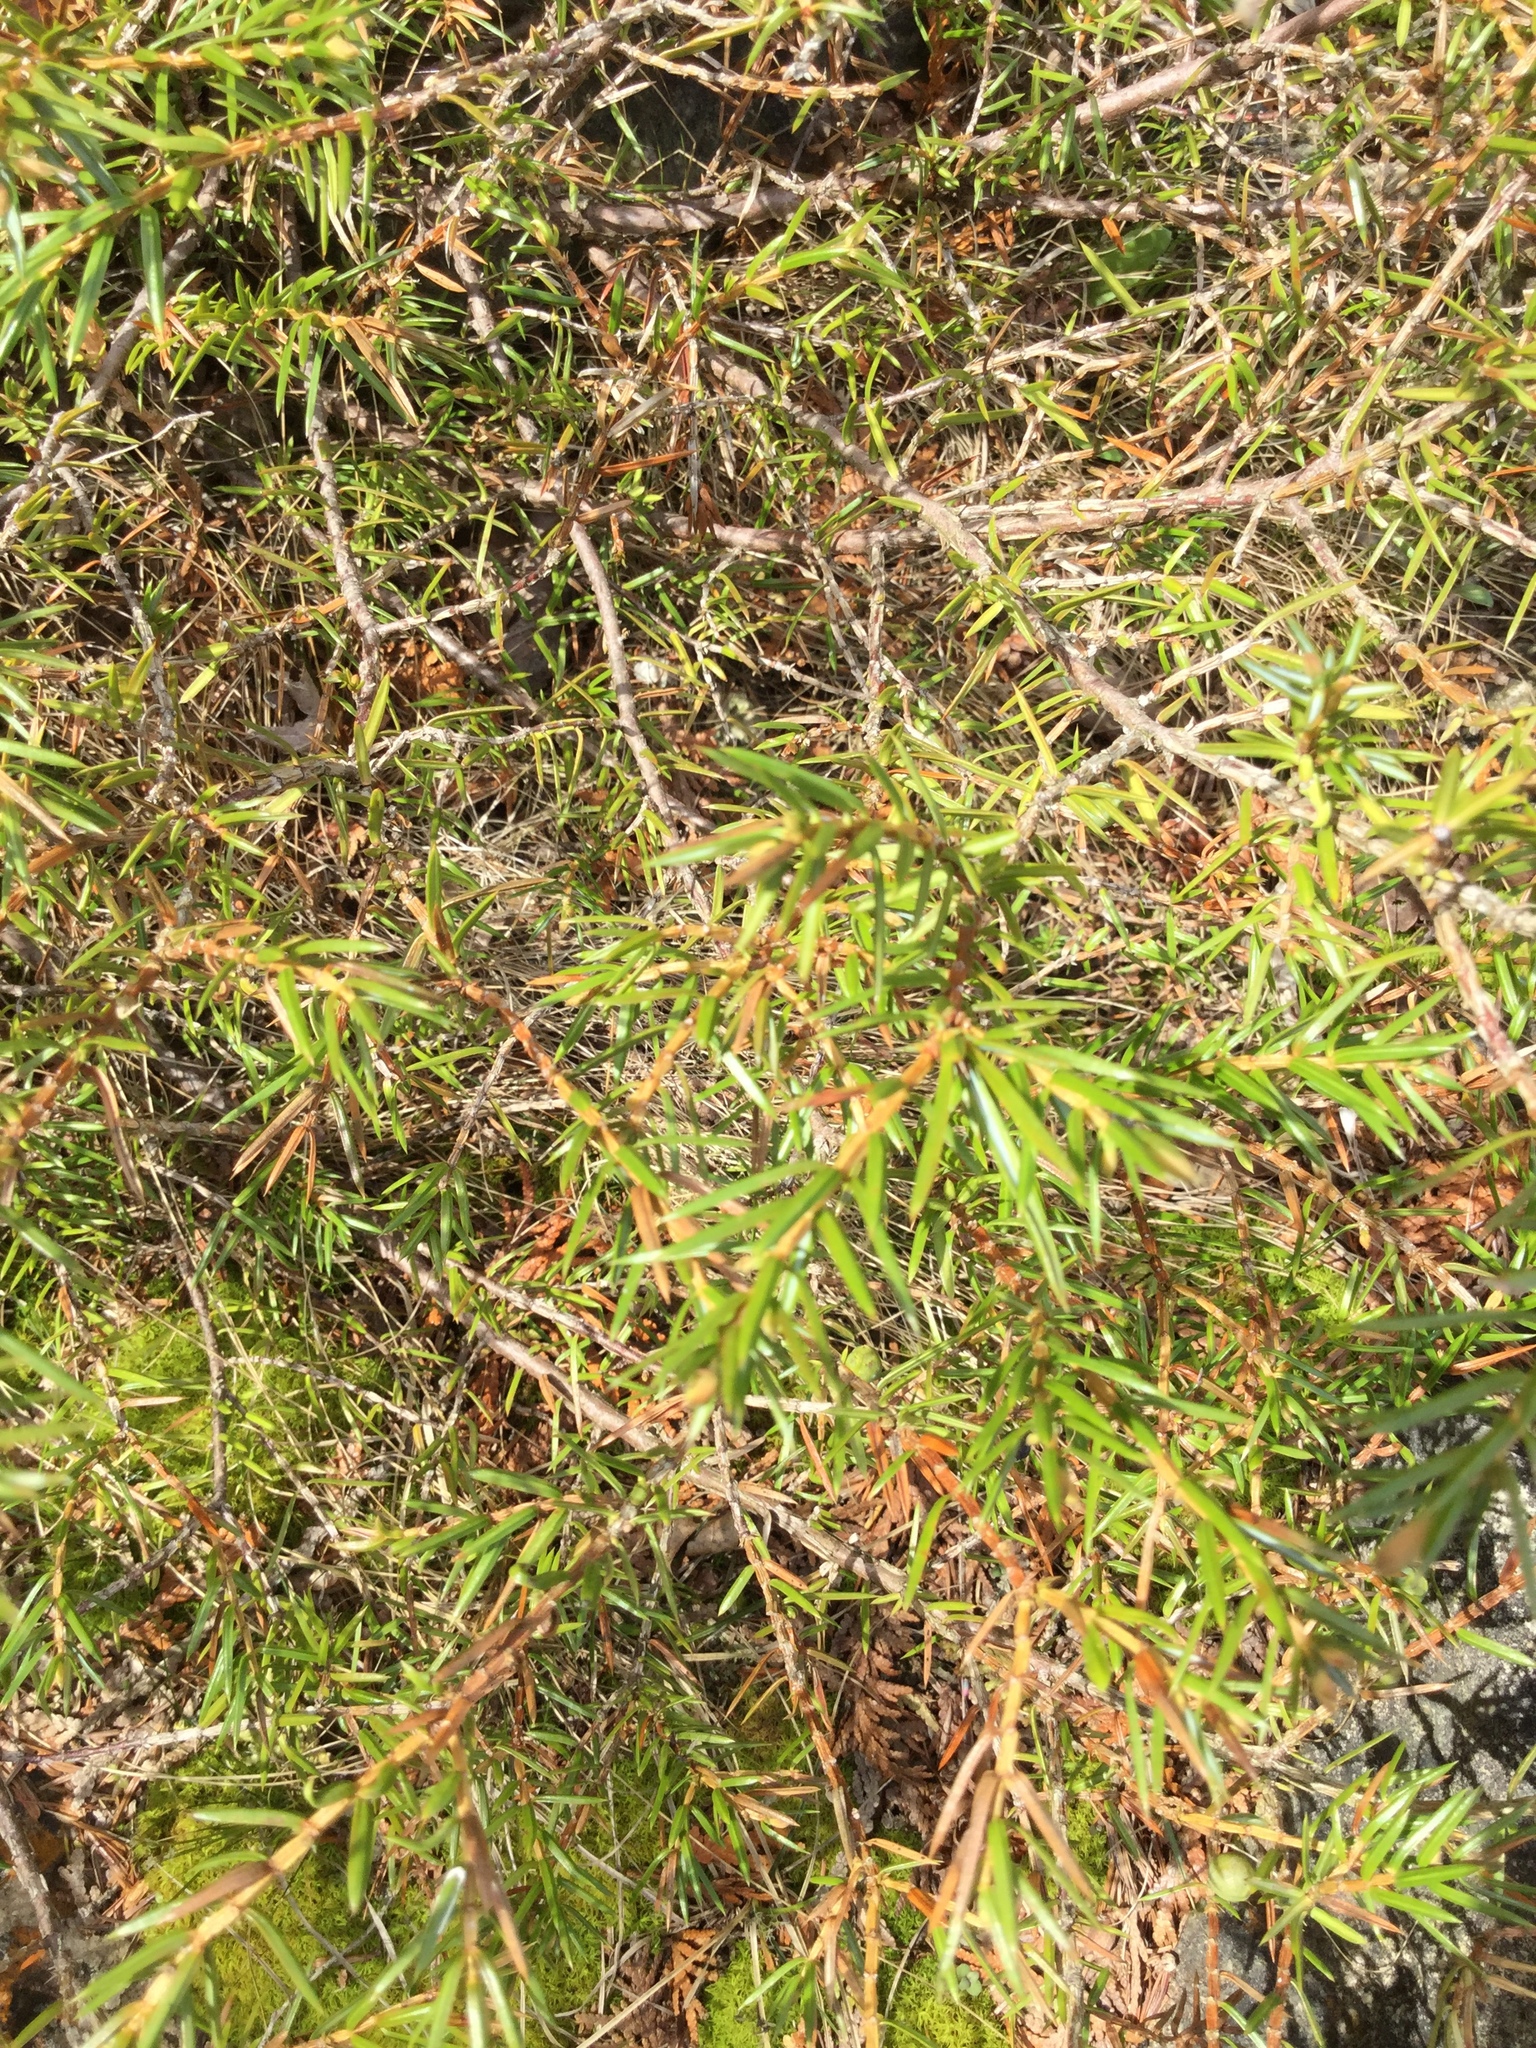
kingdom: Plantae
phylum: Tracheophyta
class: Pinopsida
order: Pinales
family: Cupressaceae
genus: Juniperus
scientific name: Juniperus communis
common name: Common juniper
